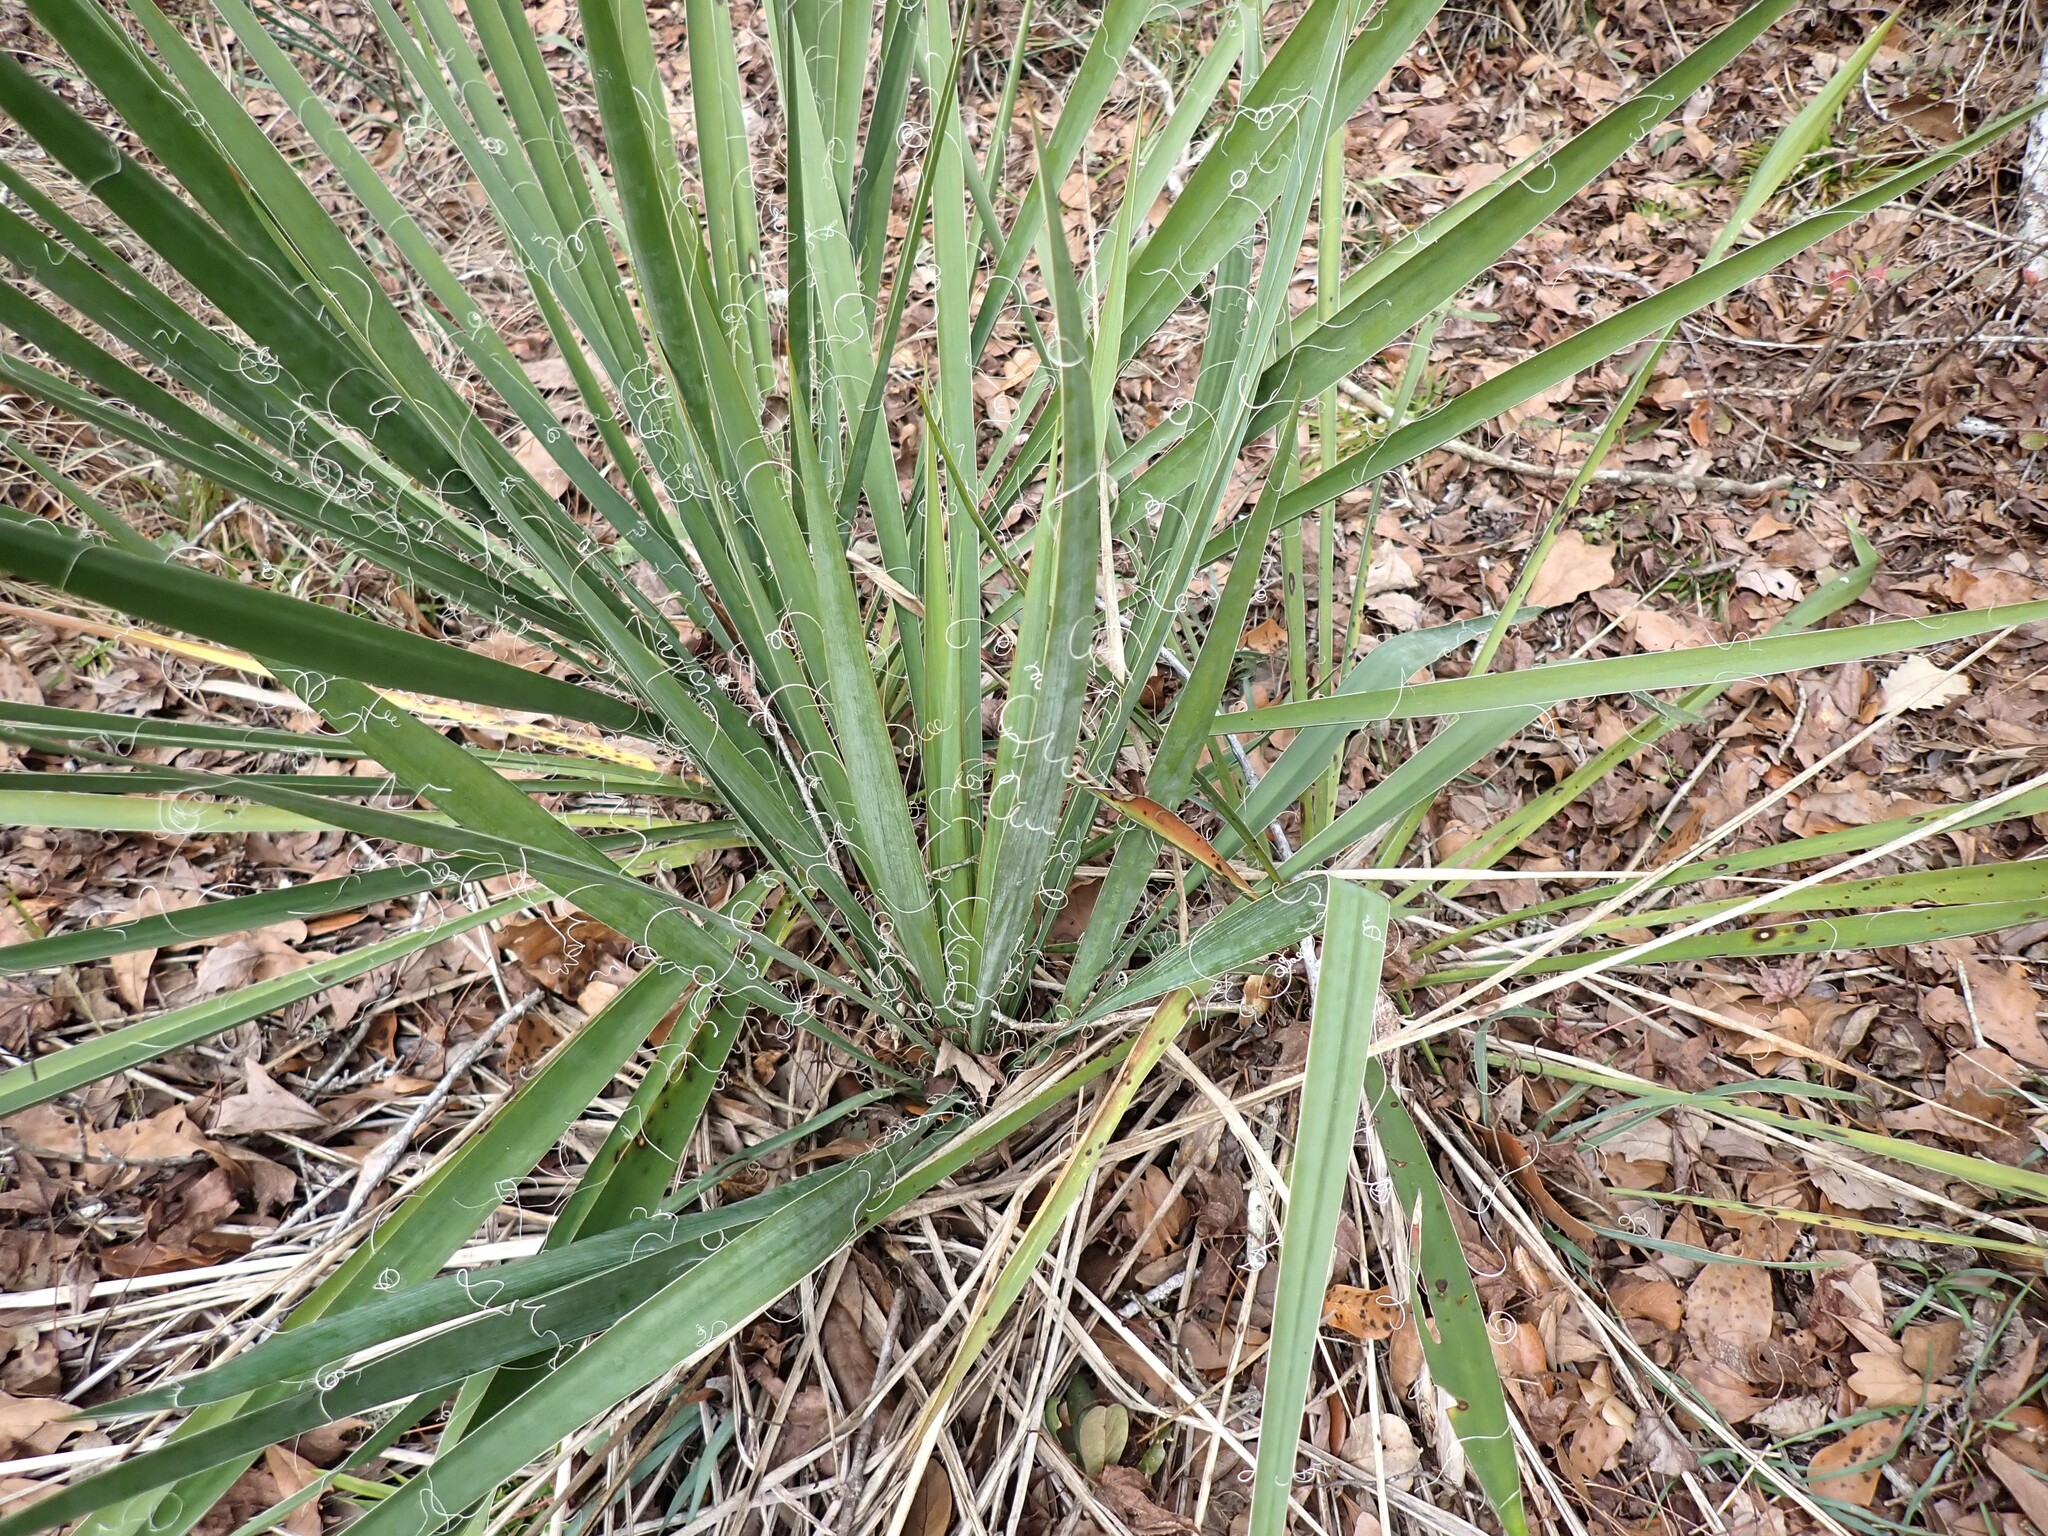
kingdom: Plantae
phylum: Tracheophyta
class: Liliopsida
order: Asparagales
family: Asparagaceae
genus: Yucca
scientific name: Yucca filamentosa
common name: Adam's-needle
